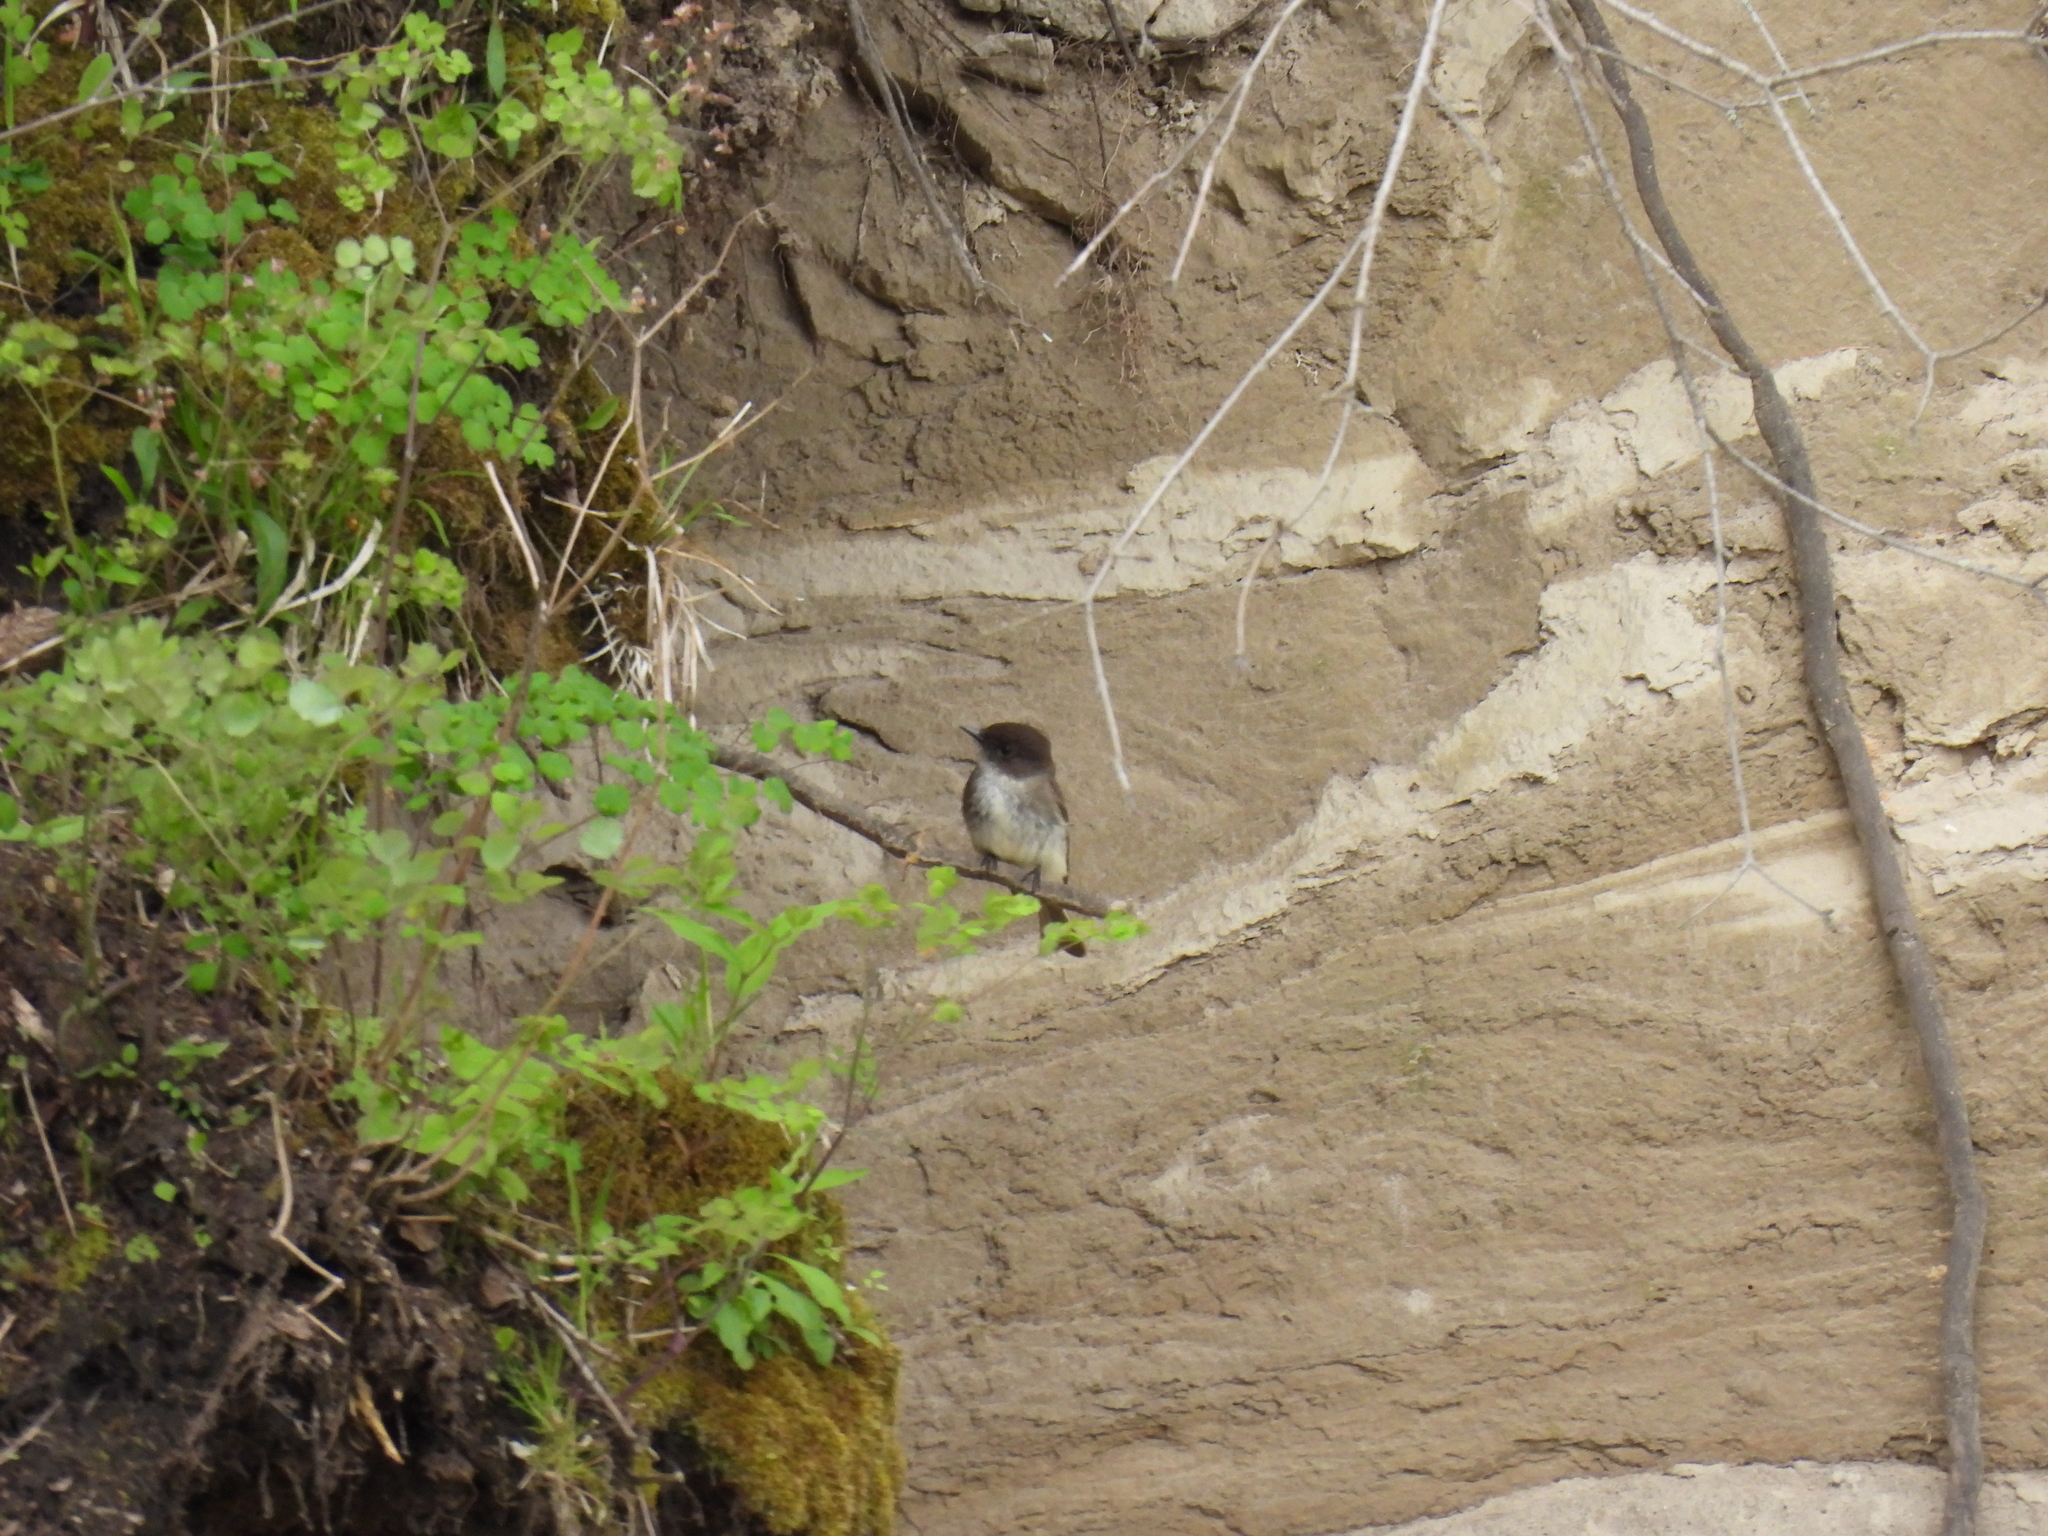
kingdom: Animalia
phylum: Chordata
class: Aves
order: Passeriformes
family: Tyrannidae
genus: Sayornis
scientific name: Sayornis phoebe
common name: Eastern phoebe
